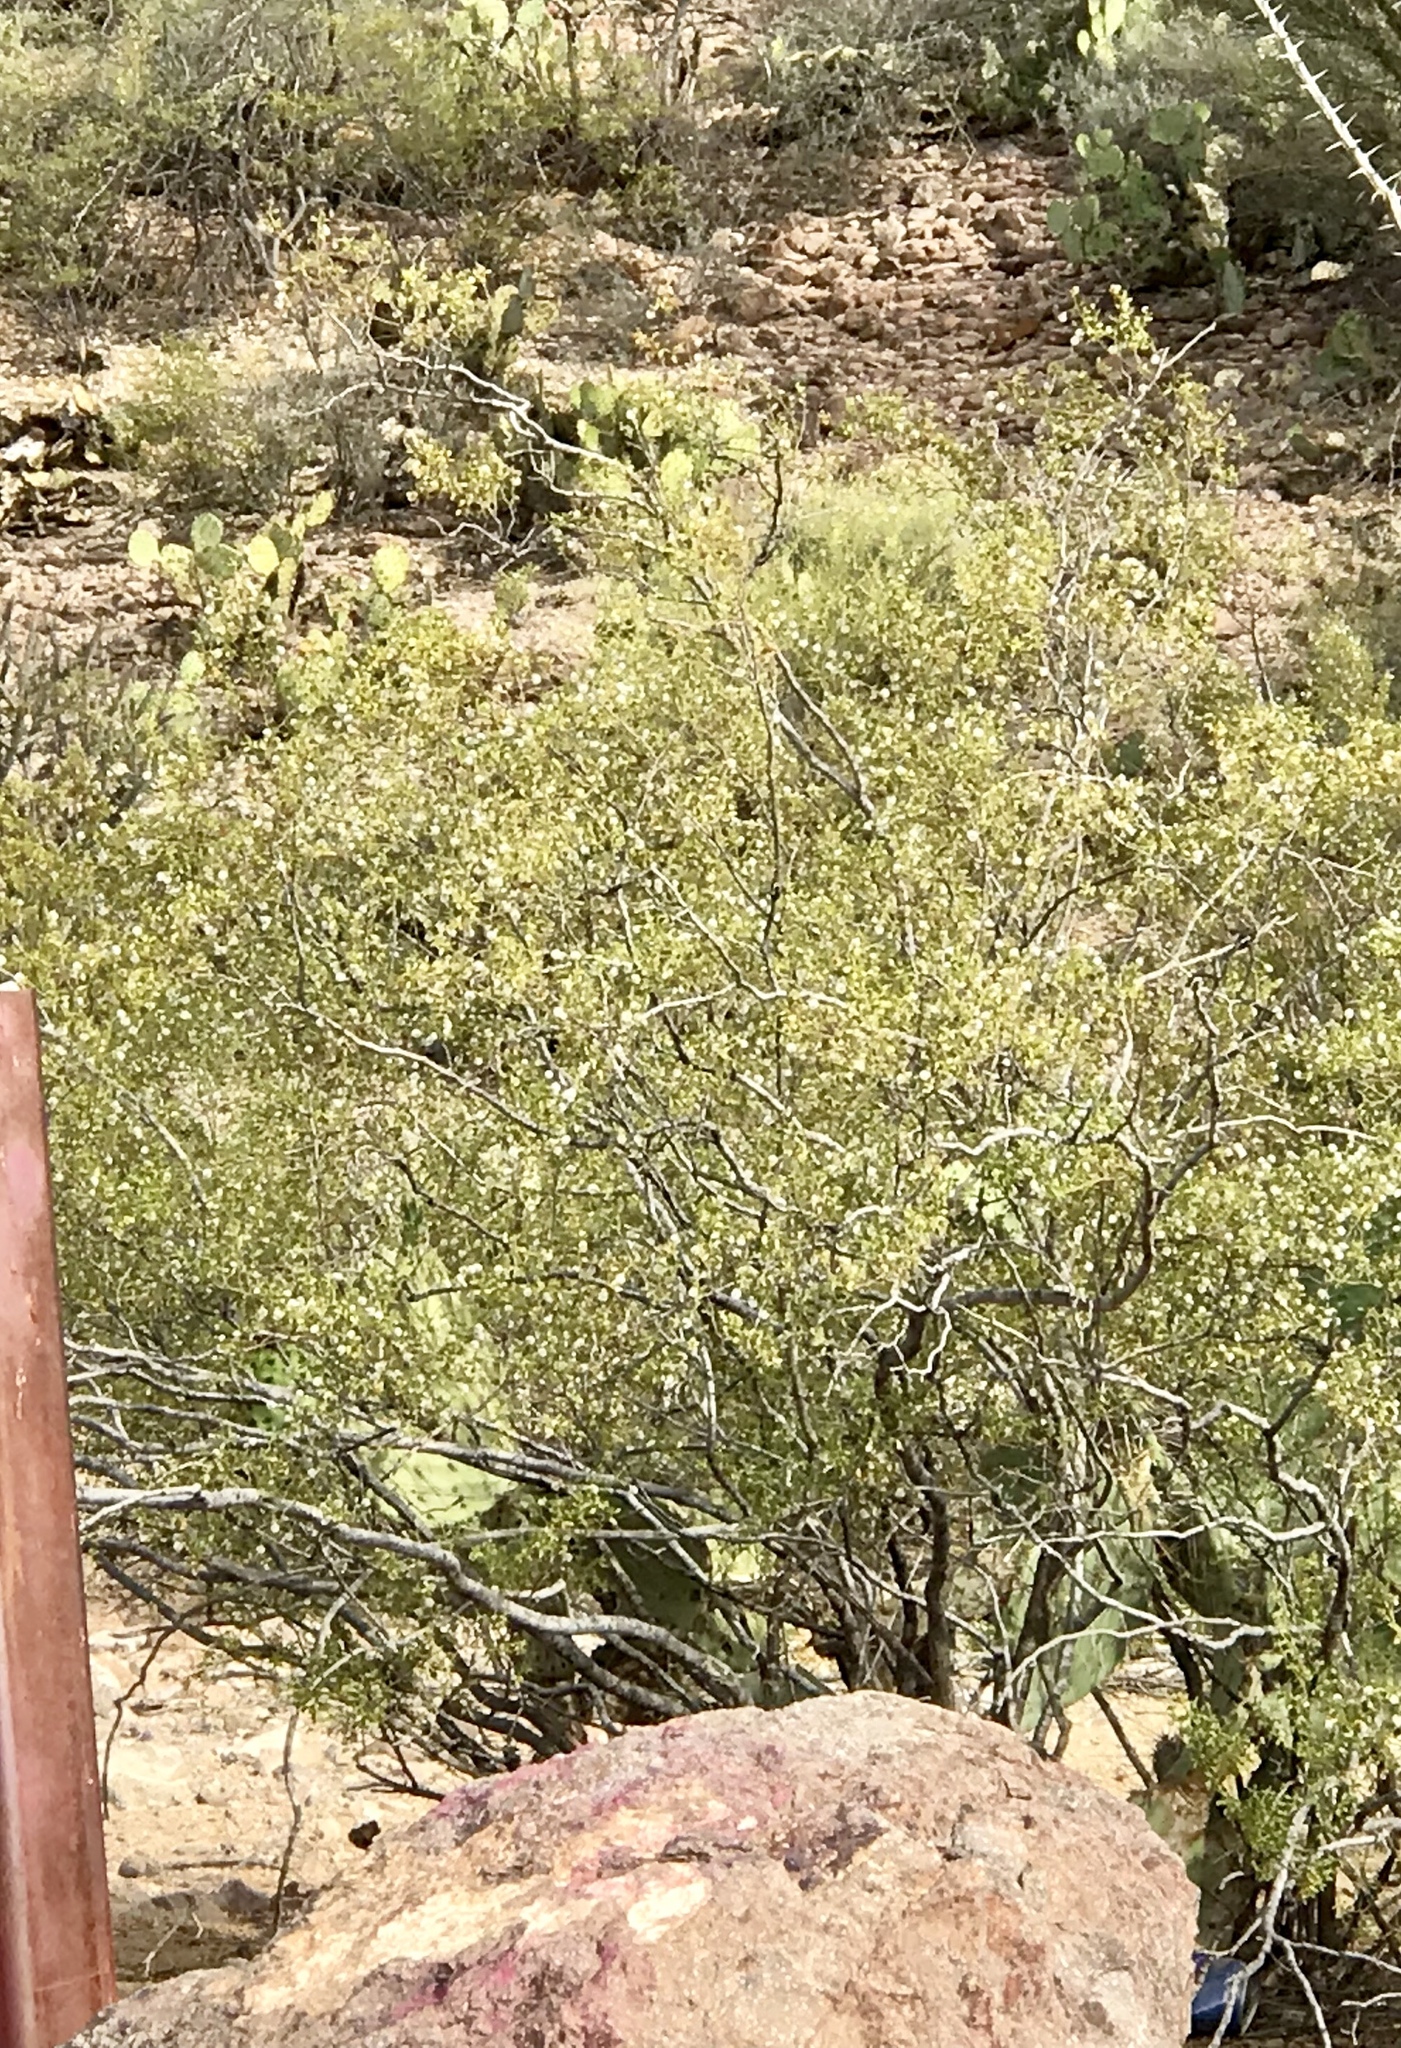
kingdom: Plantae
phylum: Tracheophyta
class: Magnoliopsida
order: Zygophyllales
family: Zygophyllaceae
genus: Larrea
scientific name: Larrea tridentata
